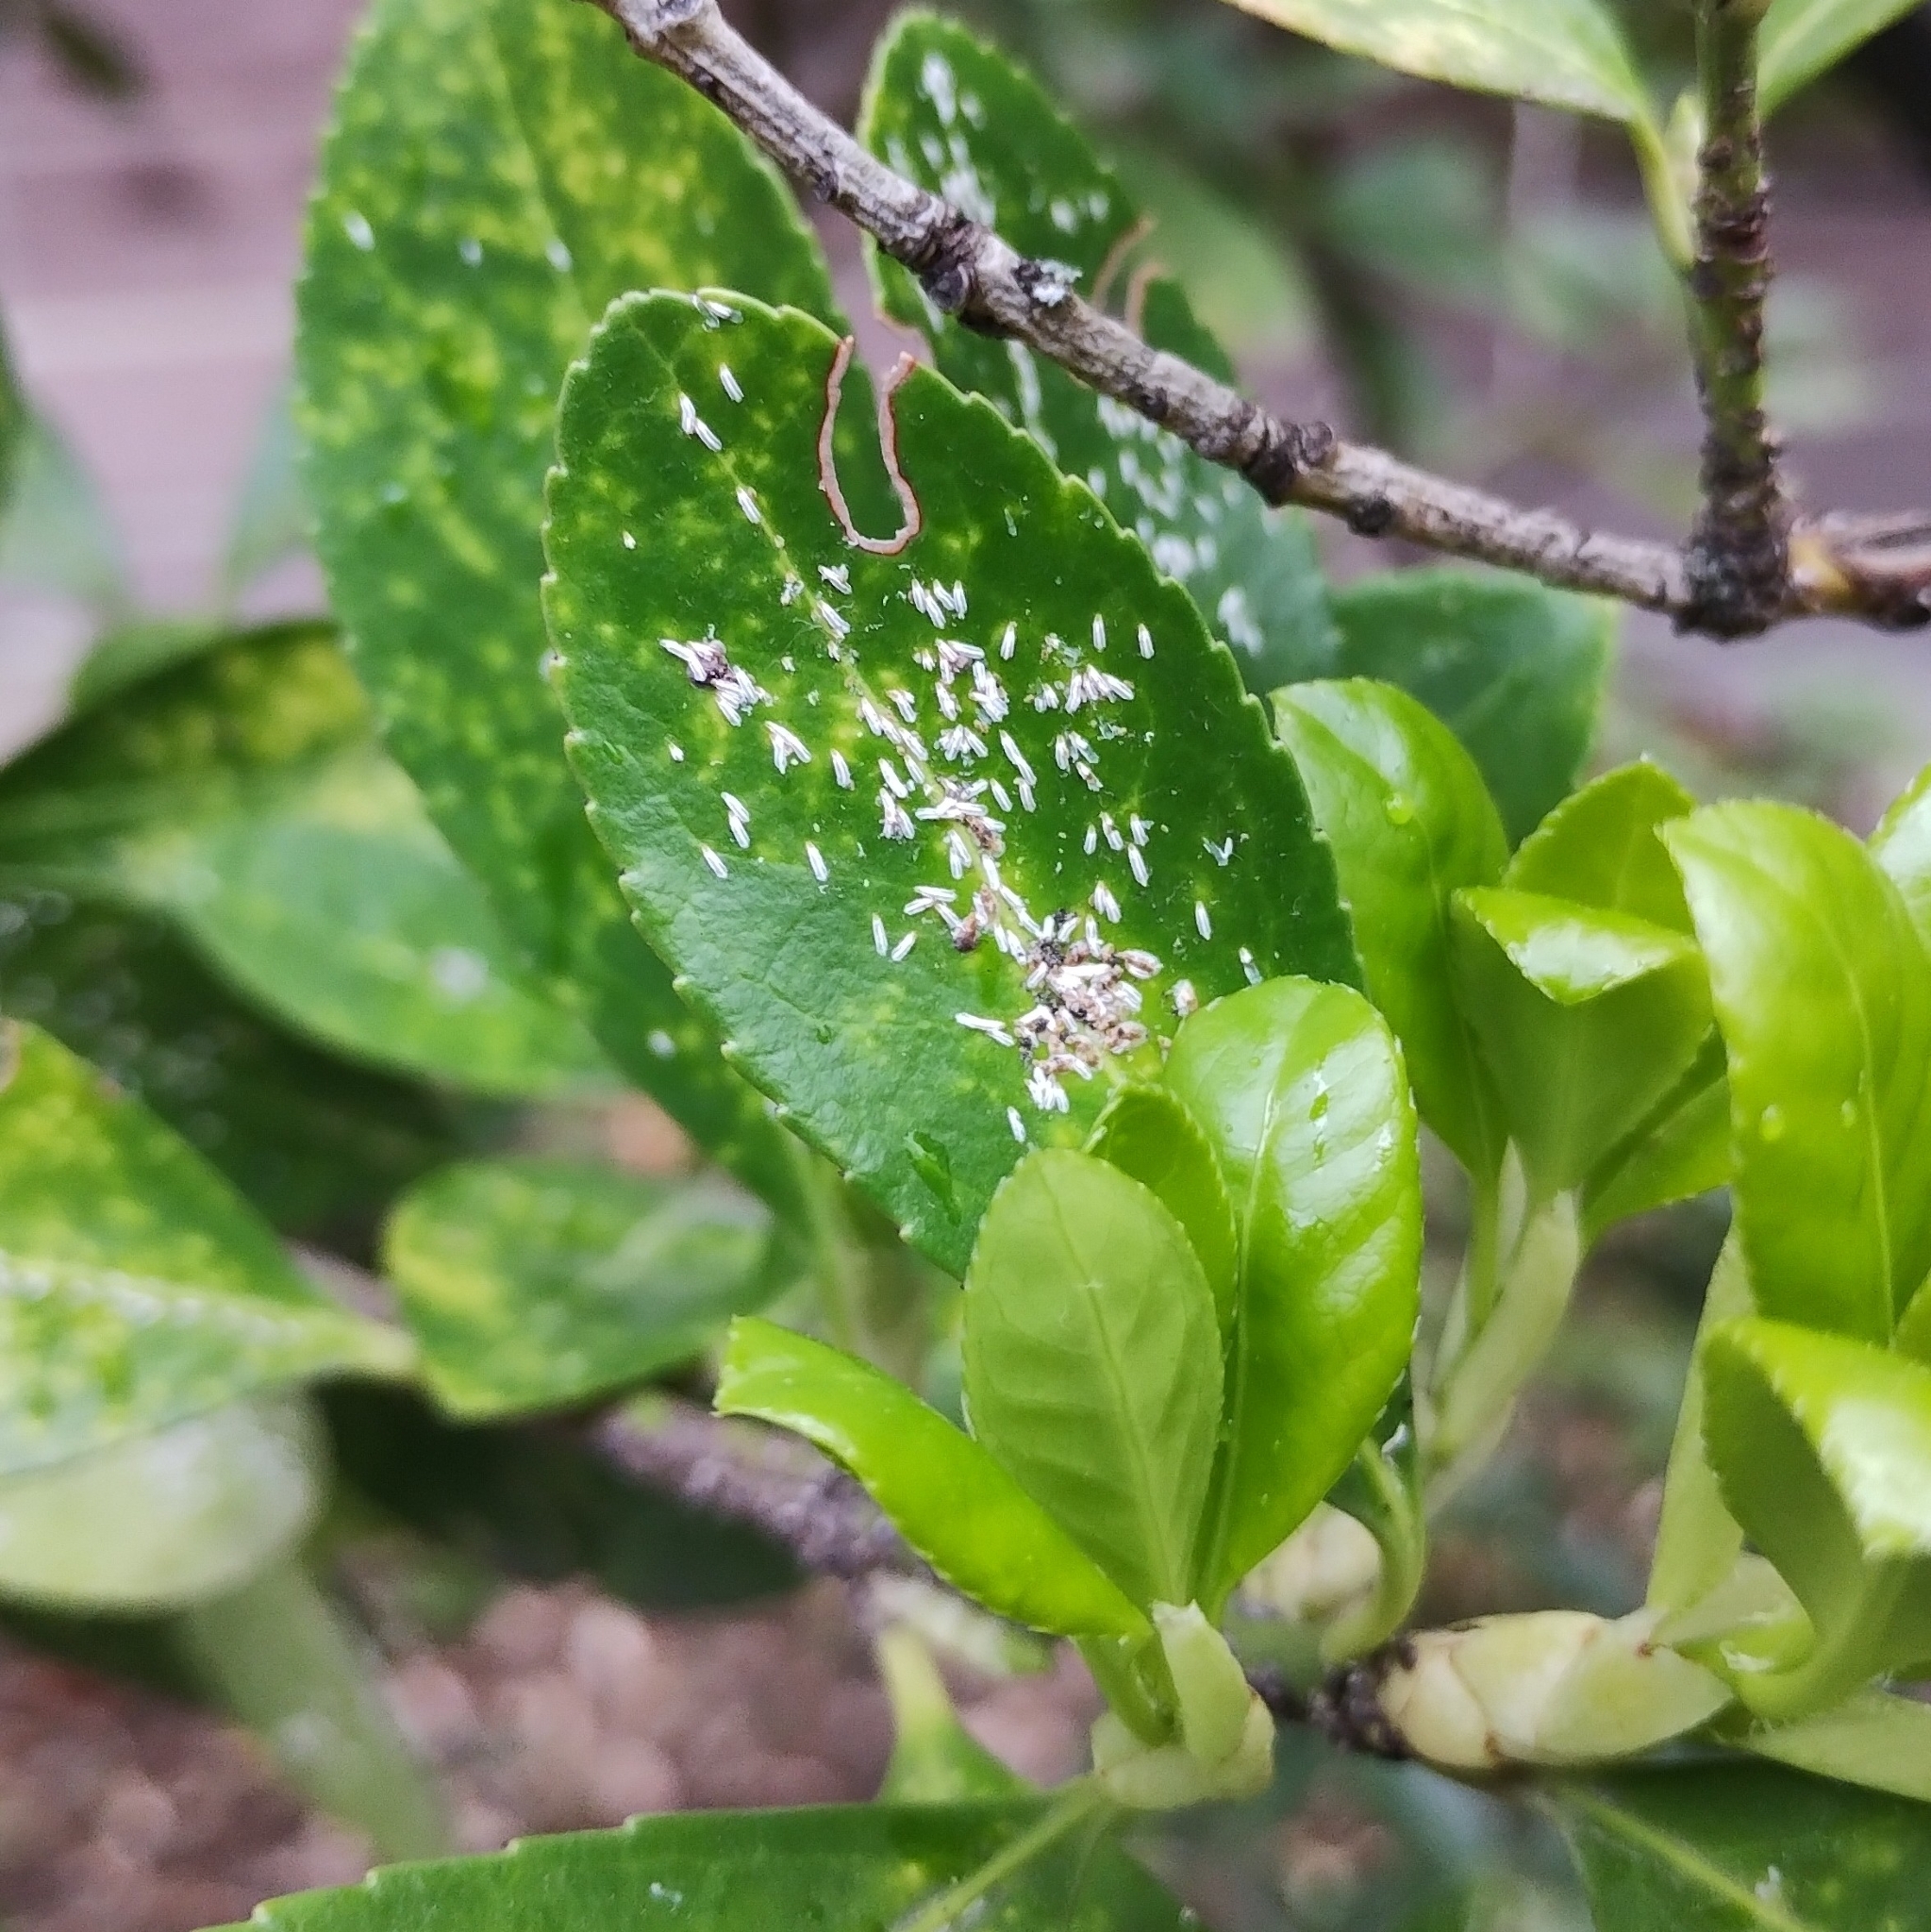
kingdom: Animalia
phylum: Arthropoda
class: Insecta
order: Hemiptera
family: Diaspididae
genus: Unaspis
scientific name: Unaspis euonymi
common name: Euonymus scale
